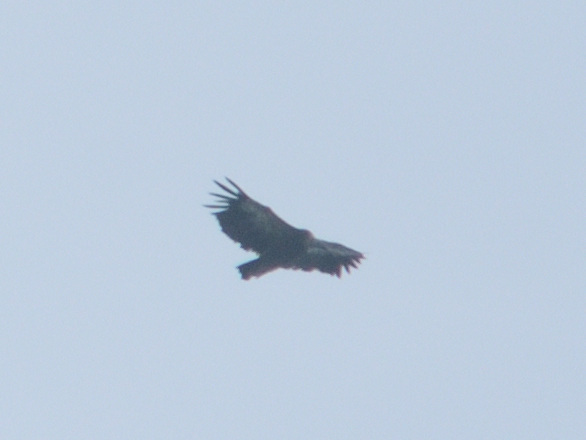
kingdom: Animalia
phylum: Chordata
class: Aves
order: Accipitriformes
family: Accipitridae
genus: Gyps
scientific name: Gyps fulvus
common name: Griffon vulture
